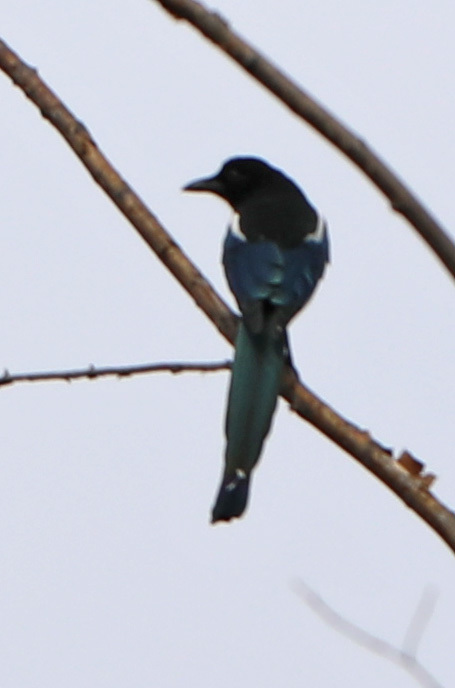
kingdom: Animalia
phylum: Chordata
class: Aves
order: Passeriformes
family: Corvidae
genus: Pica
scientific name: Pica hudsonia
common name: Black-billed magpie
